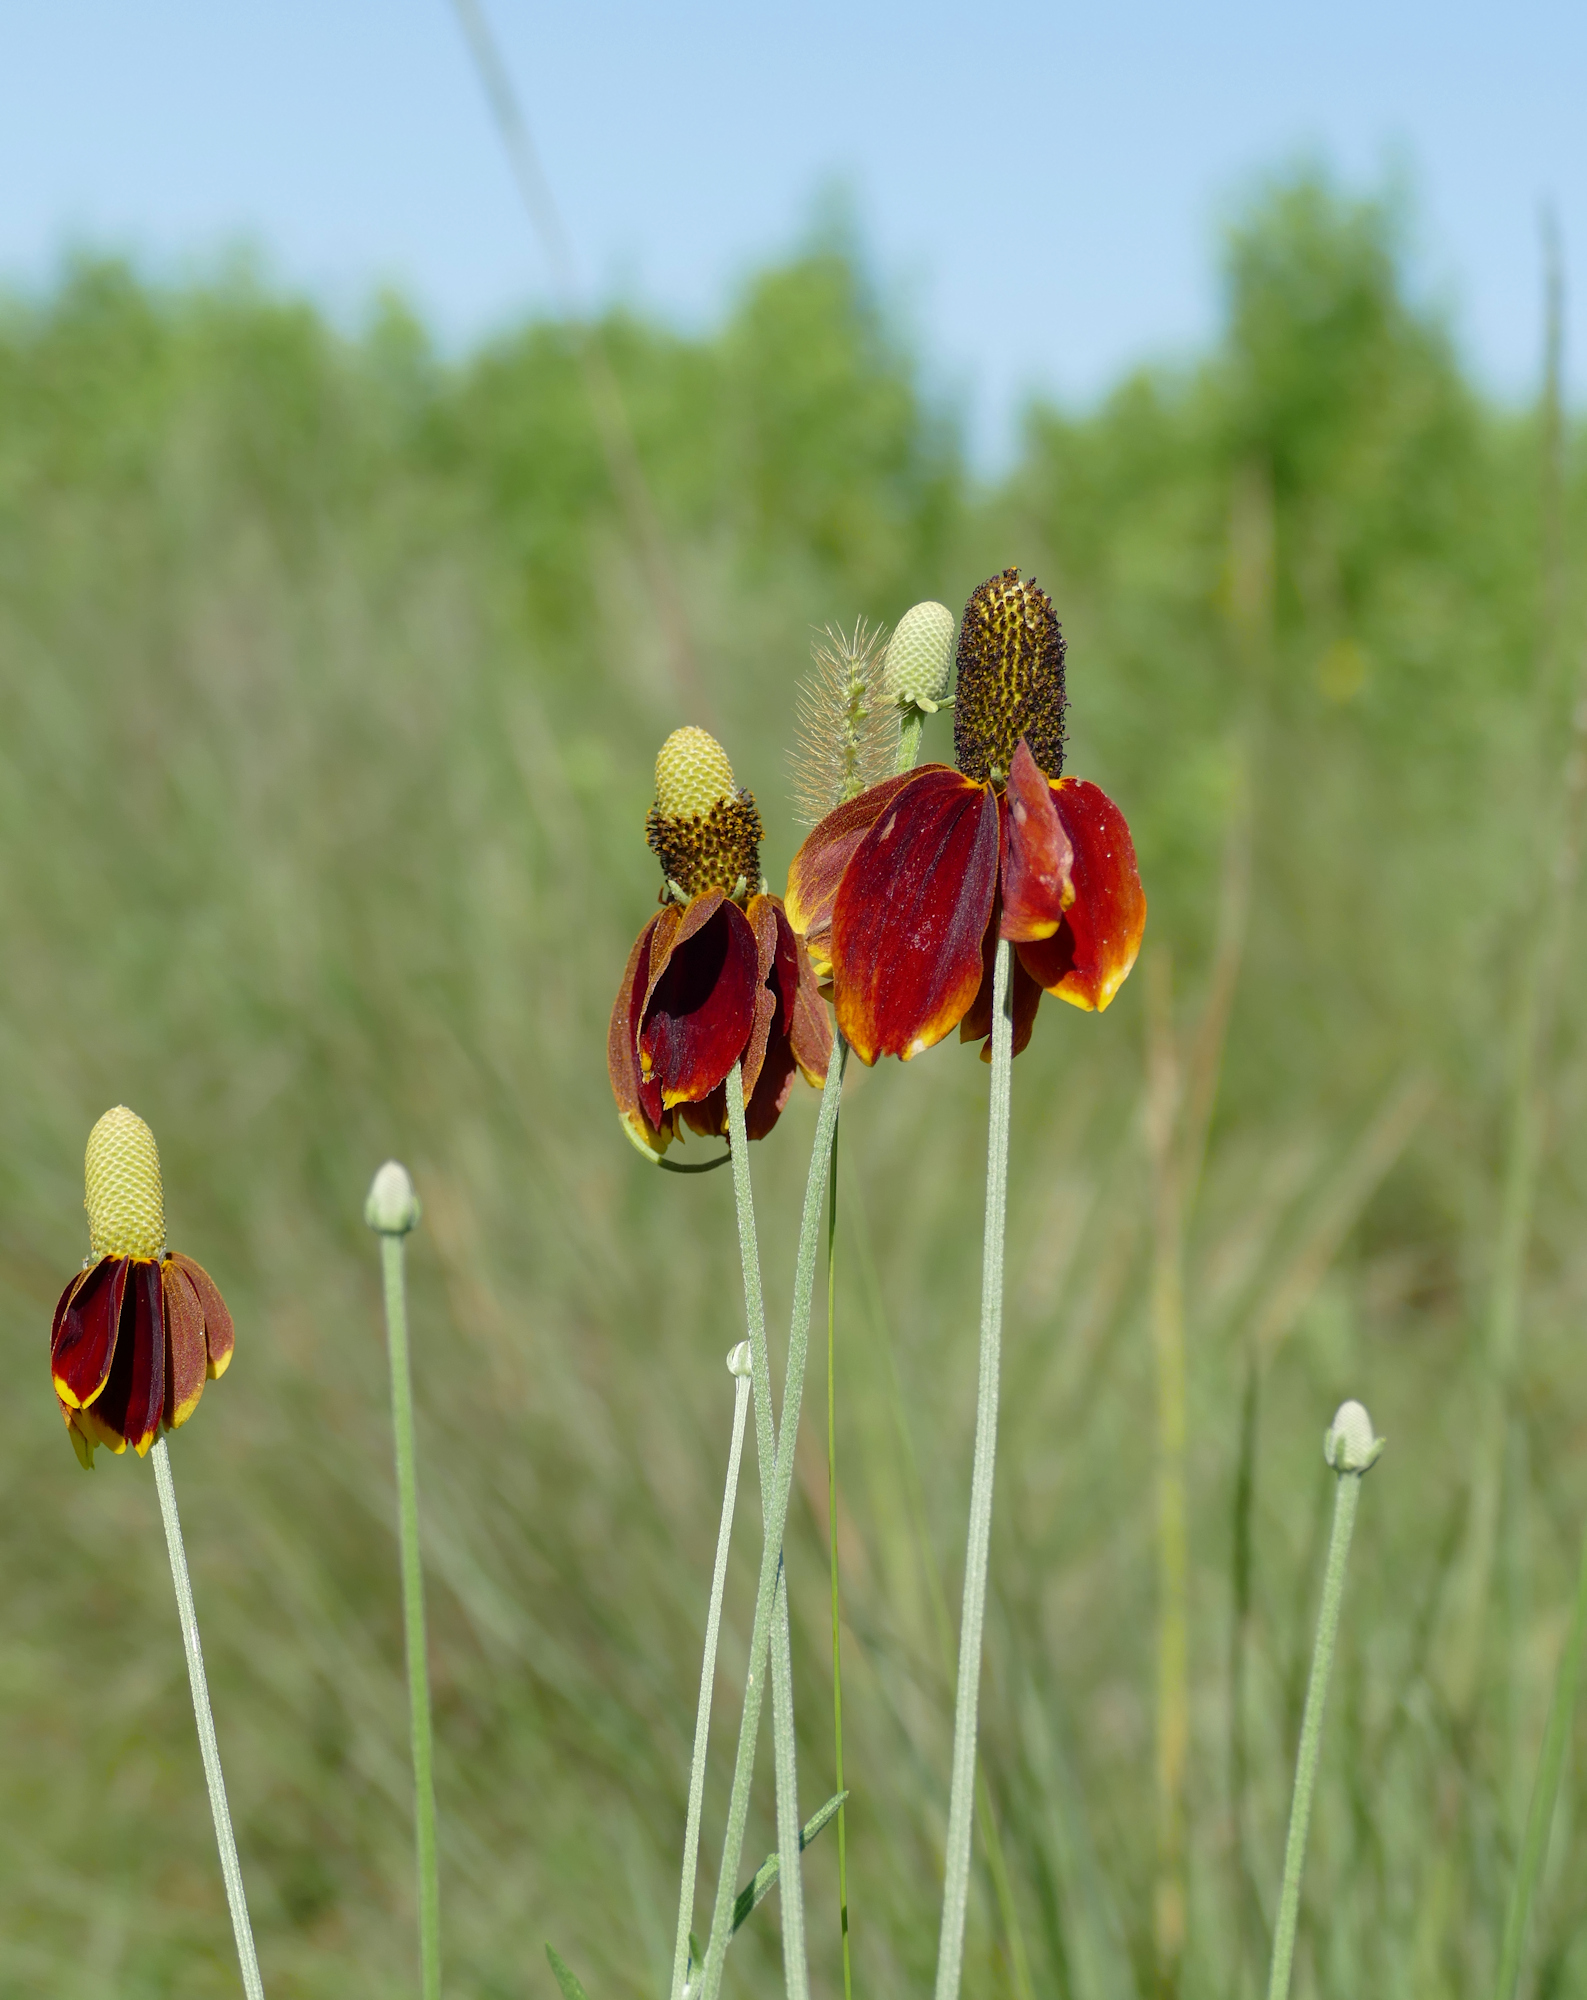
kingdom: Plantae
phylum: Tracheophyta
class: Magnoliopsida
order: Asterales
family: Asteraceae
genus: Ratibida
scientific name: Ratibida columnifera
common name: Prairie coneflower
